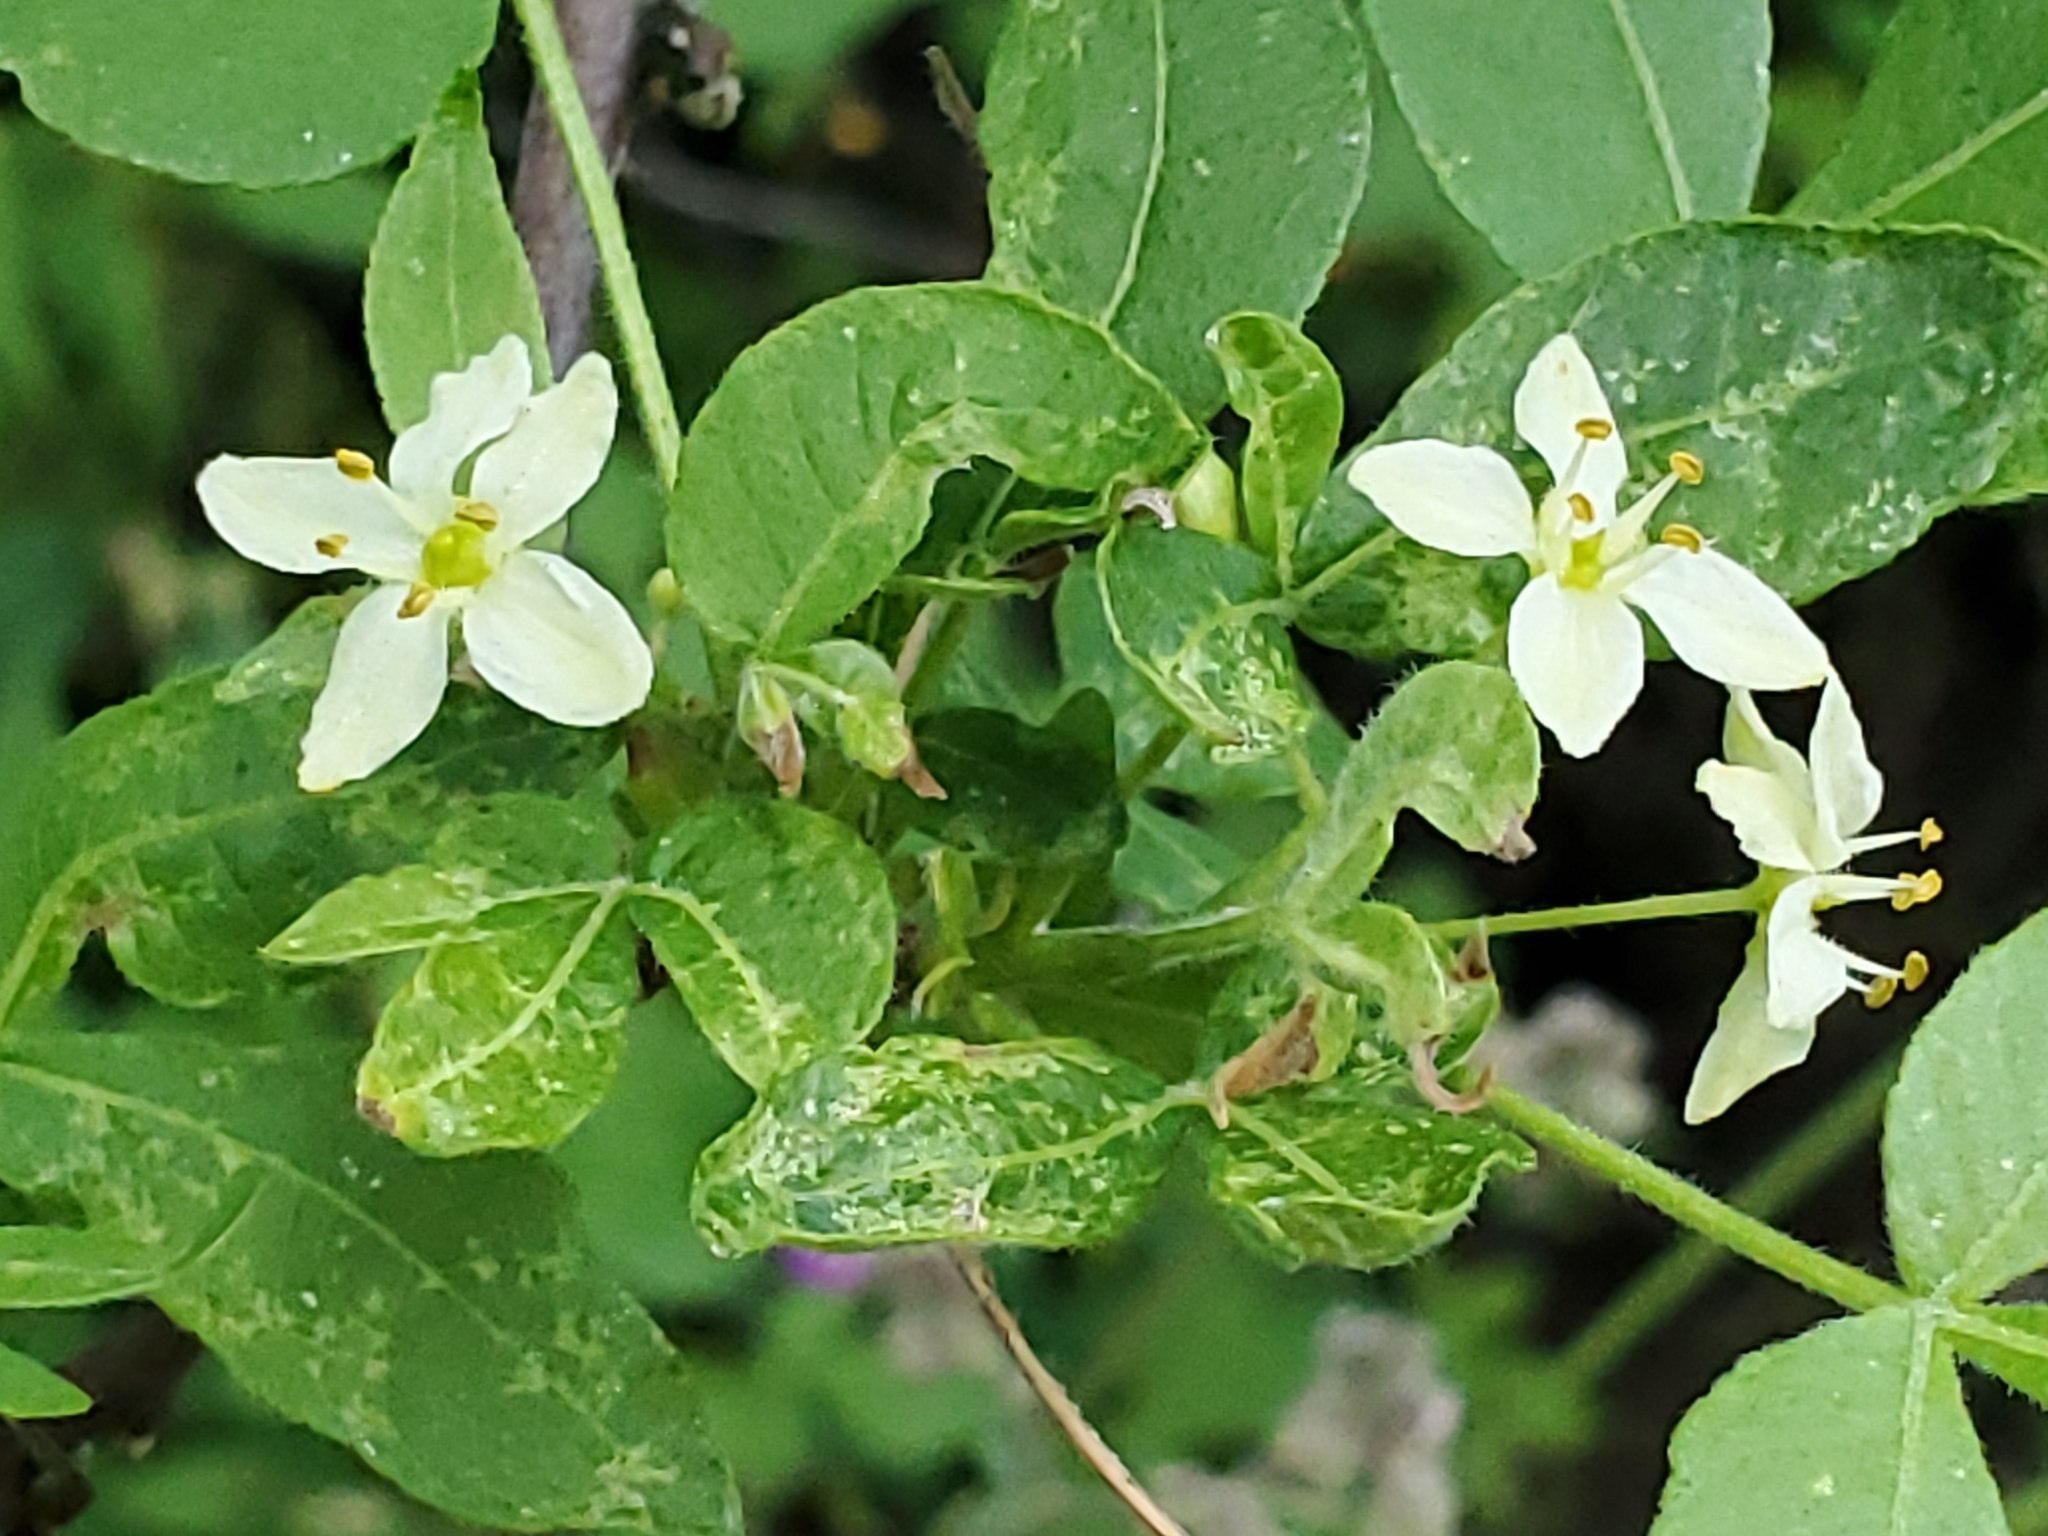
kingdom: Plantae
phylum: Tracheophyta
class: Magnoliopsida
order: Sapindales
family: Rutaceae
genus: Ptelea
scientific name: Ptelea trifoliata
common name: Common hop-tree
